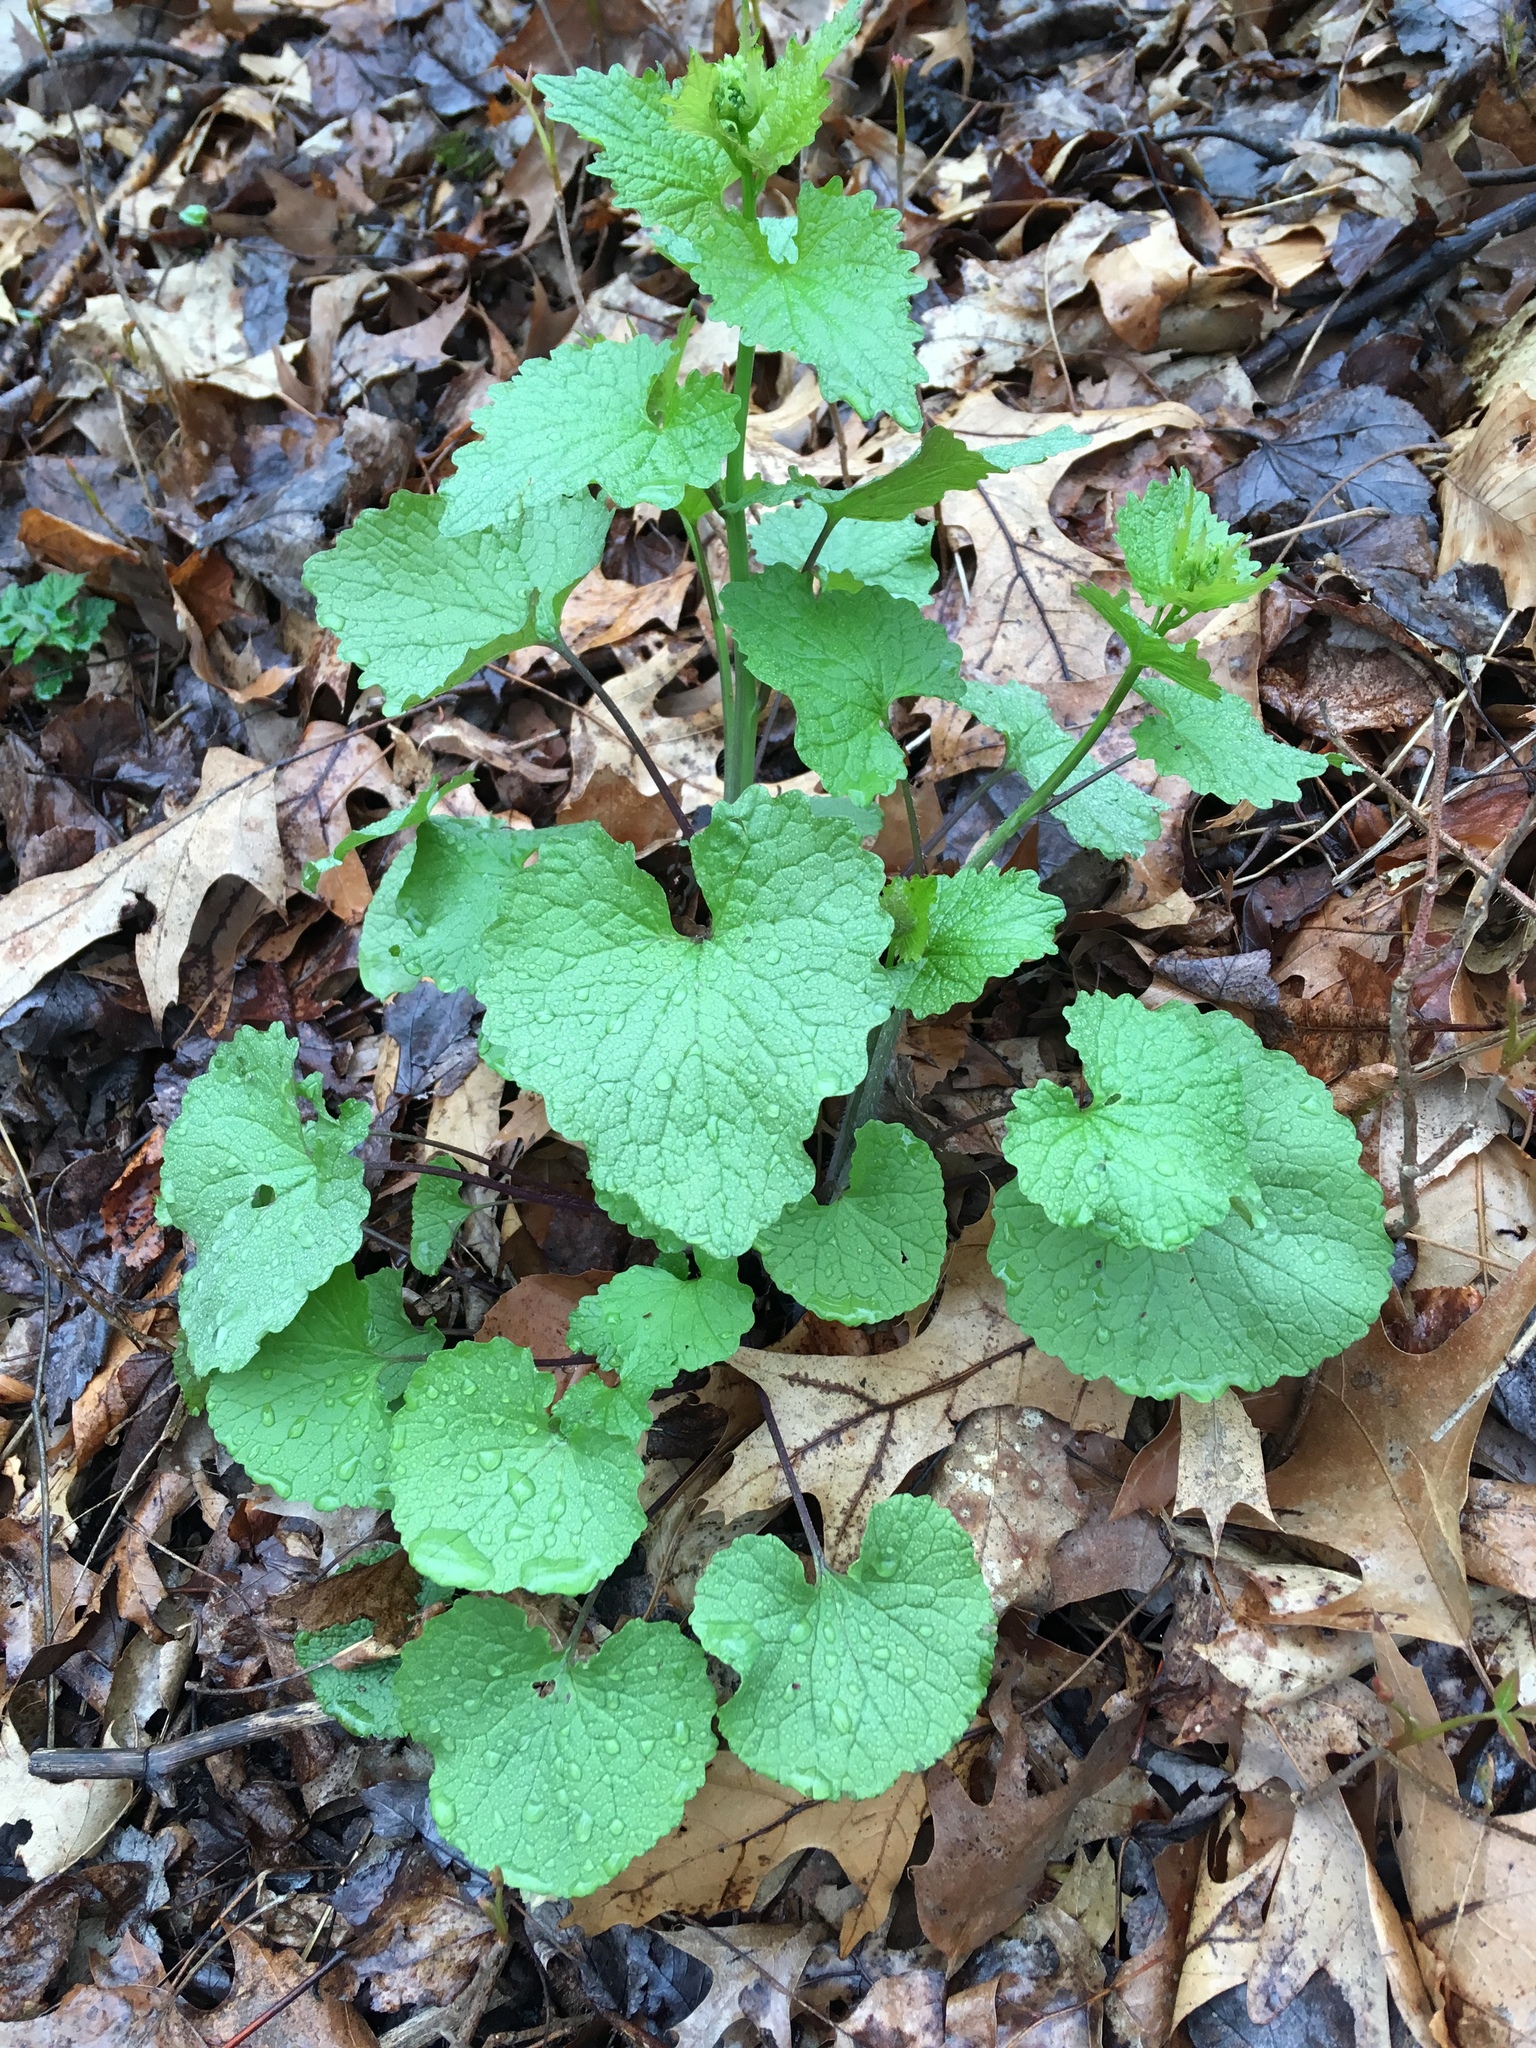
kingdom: Plantae
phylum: Tracheophyta
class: Magnoliopsida
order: Brassicales
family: Brassicaceae
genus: Alliaria
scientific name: Alliaria petiolata
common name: Garlic mustard
